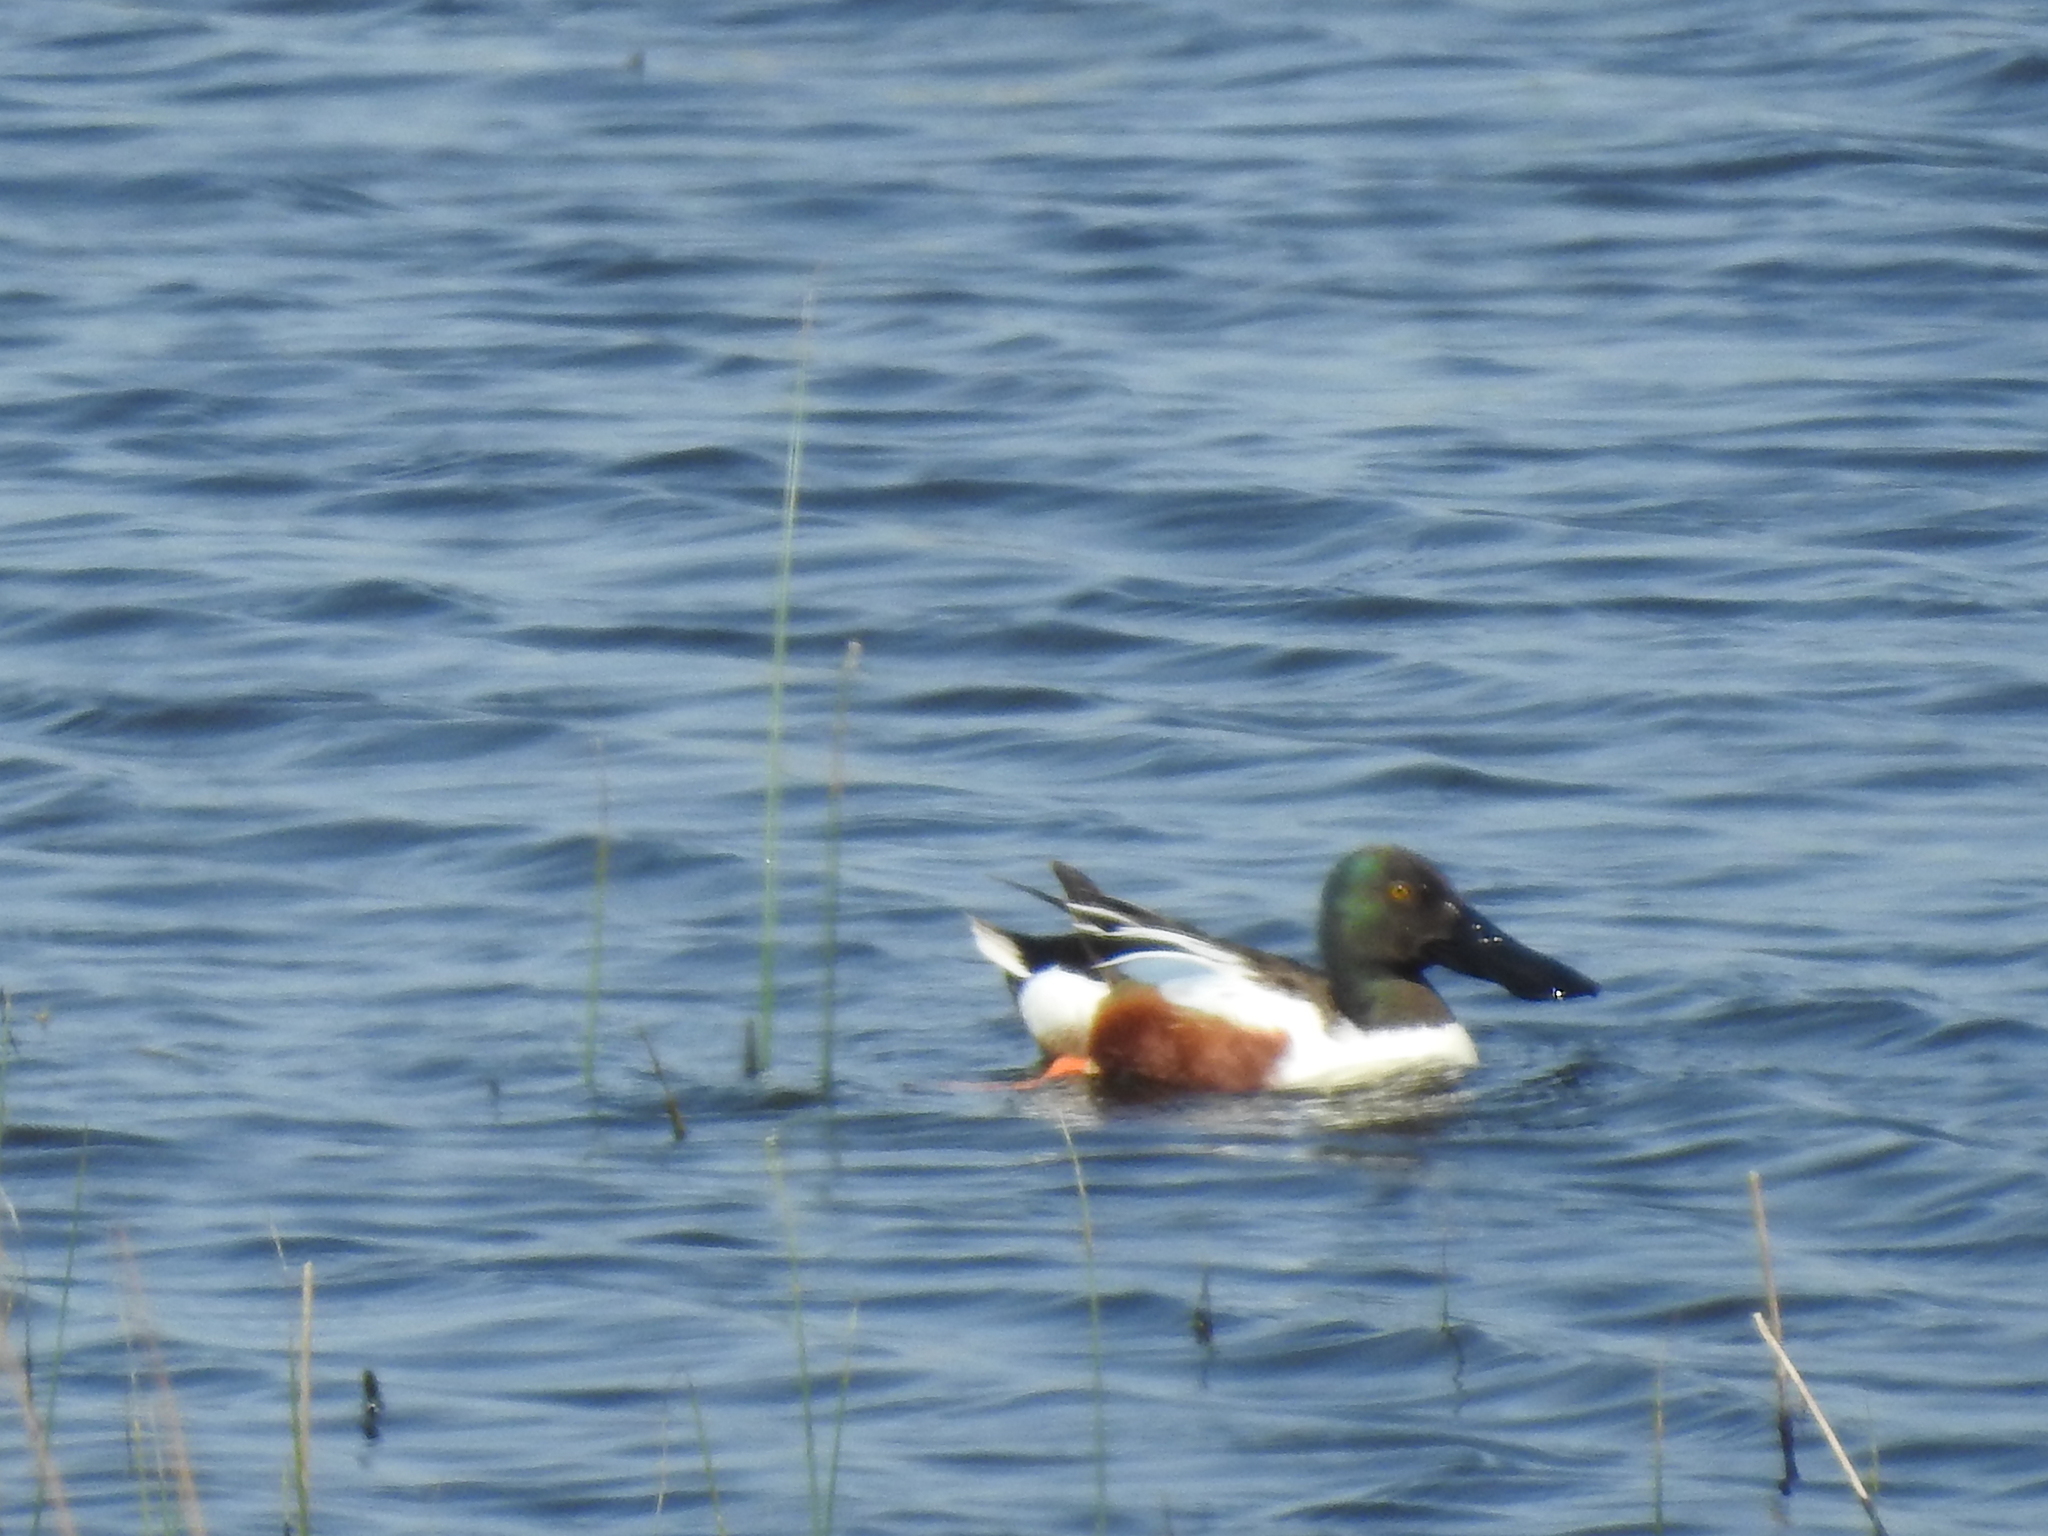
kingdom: Animalia
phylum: Chordata
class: Aves
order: Anseriformes
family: Anatidae
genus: Spatula
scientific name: Spatula clypeata
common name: Northern shoveler
